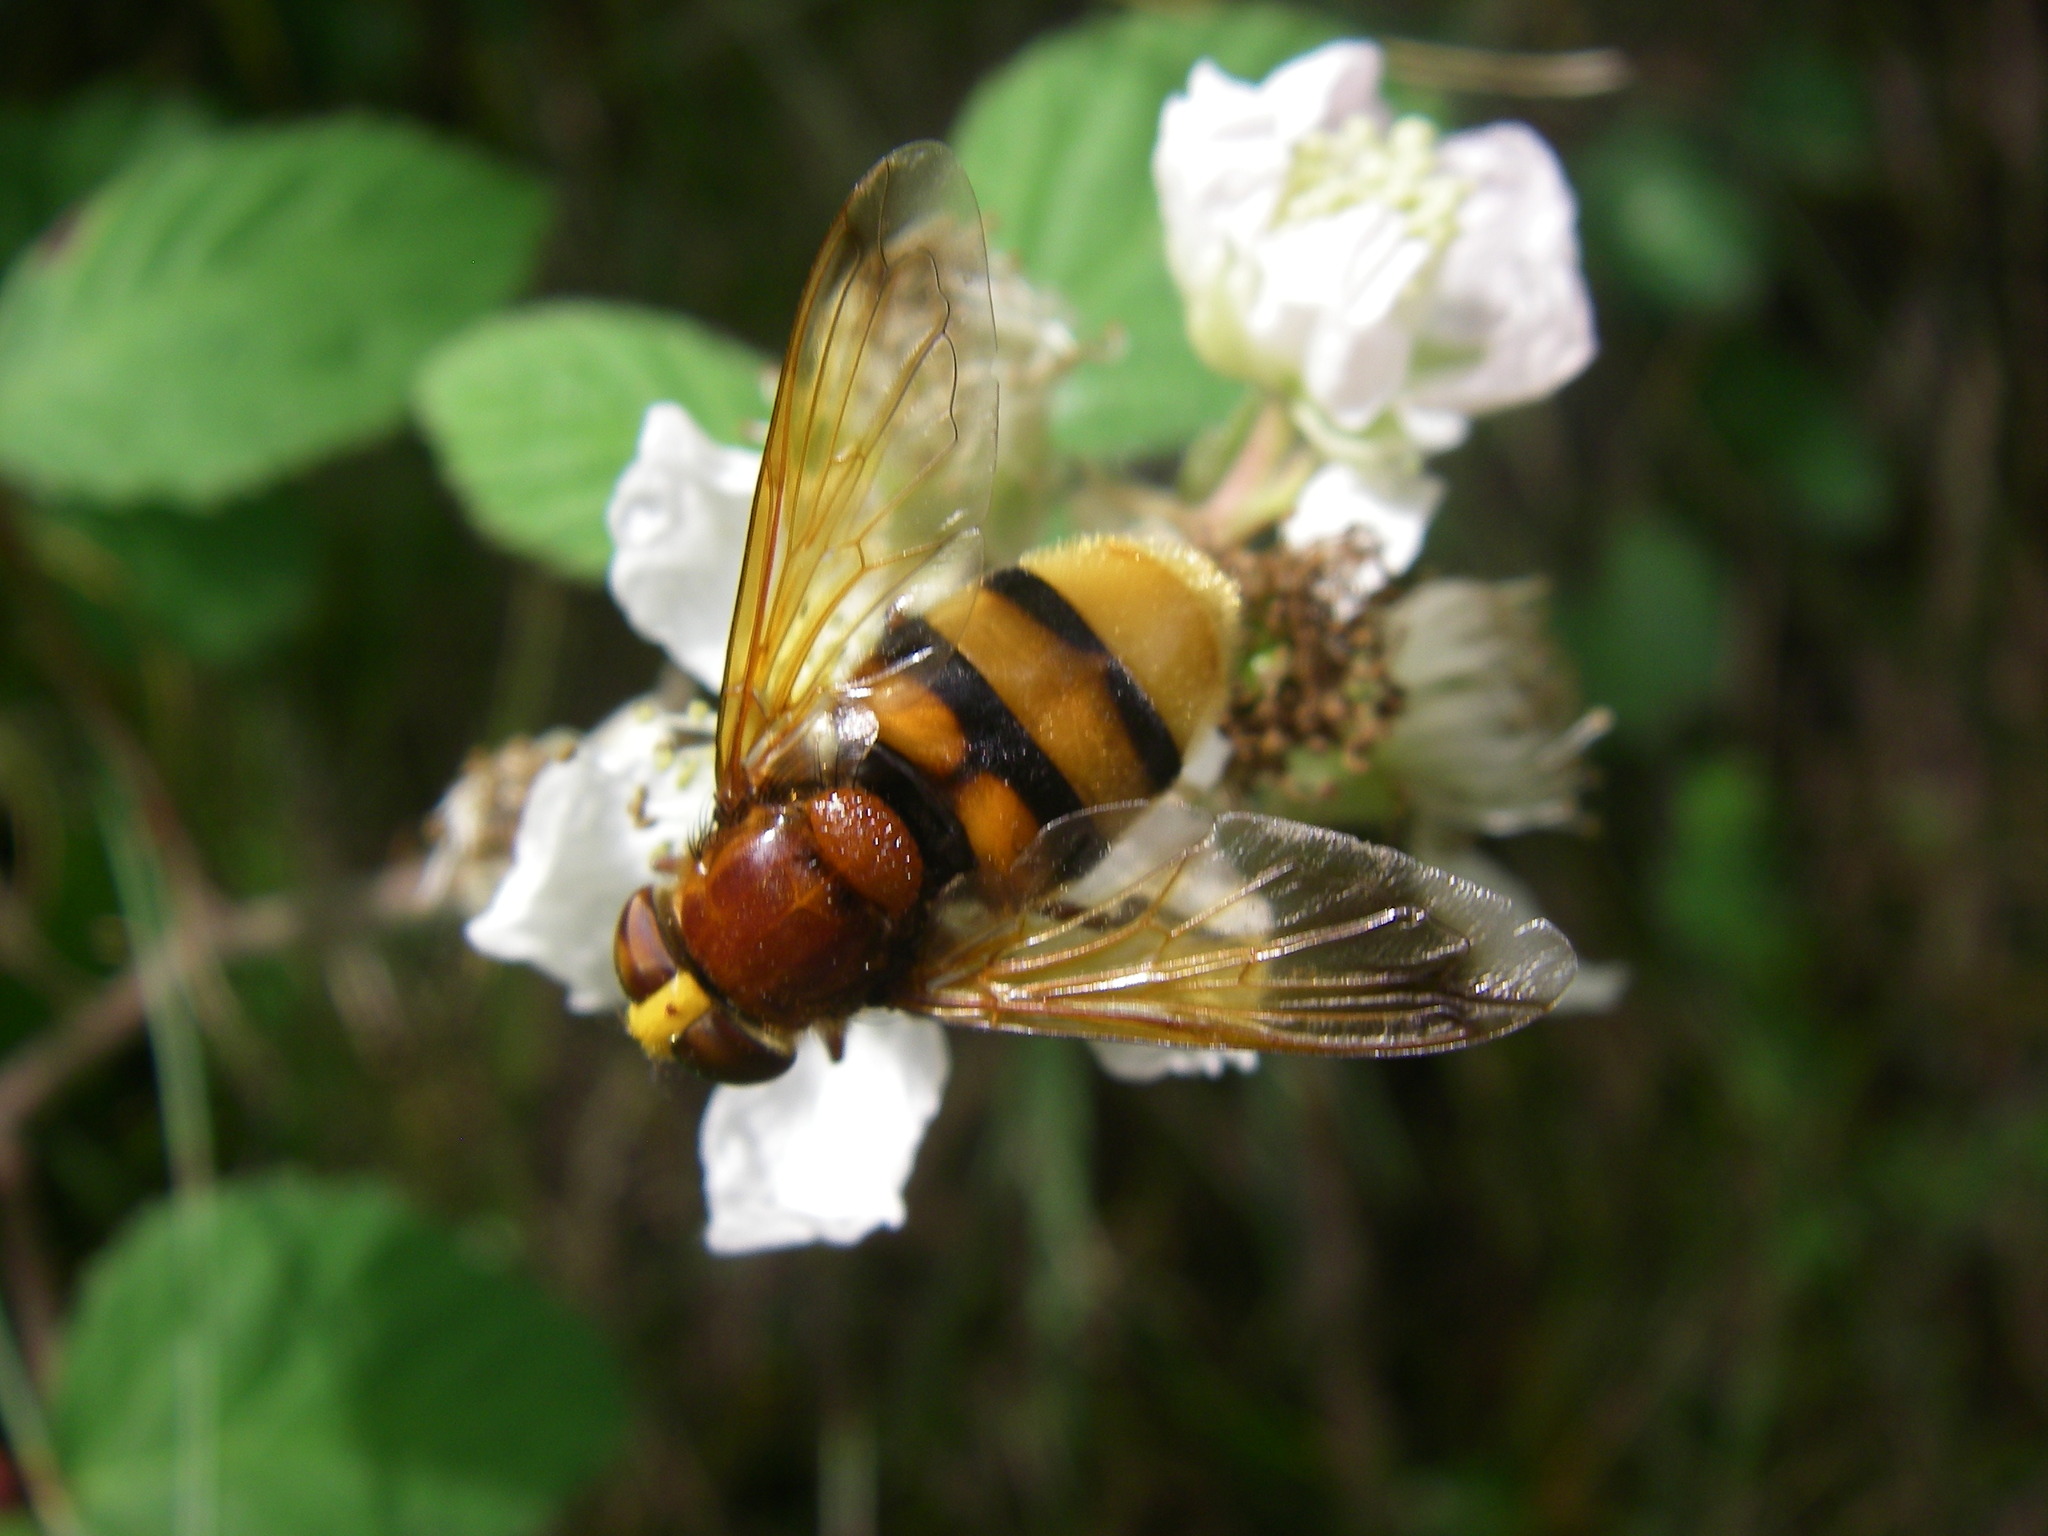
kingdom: Animalia
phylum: Arthropoda
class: Insecta
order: Diptera
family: Syrphidae
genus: Volucella
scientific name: Volucella zonaria
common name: Hornet hoverfly
